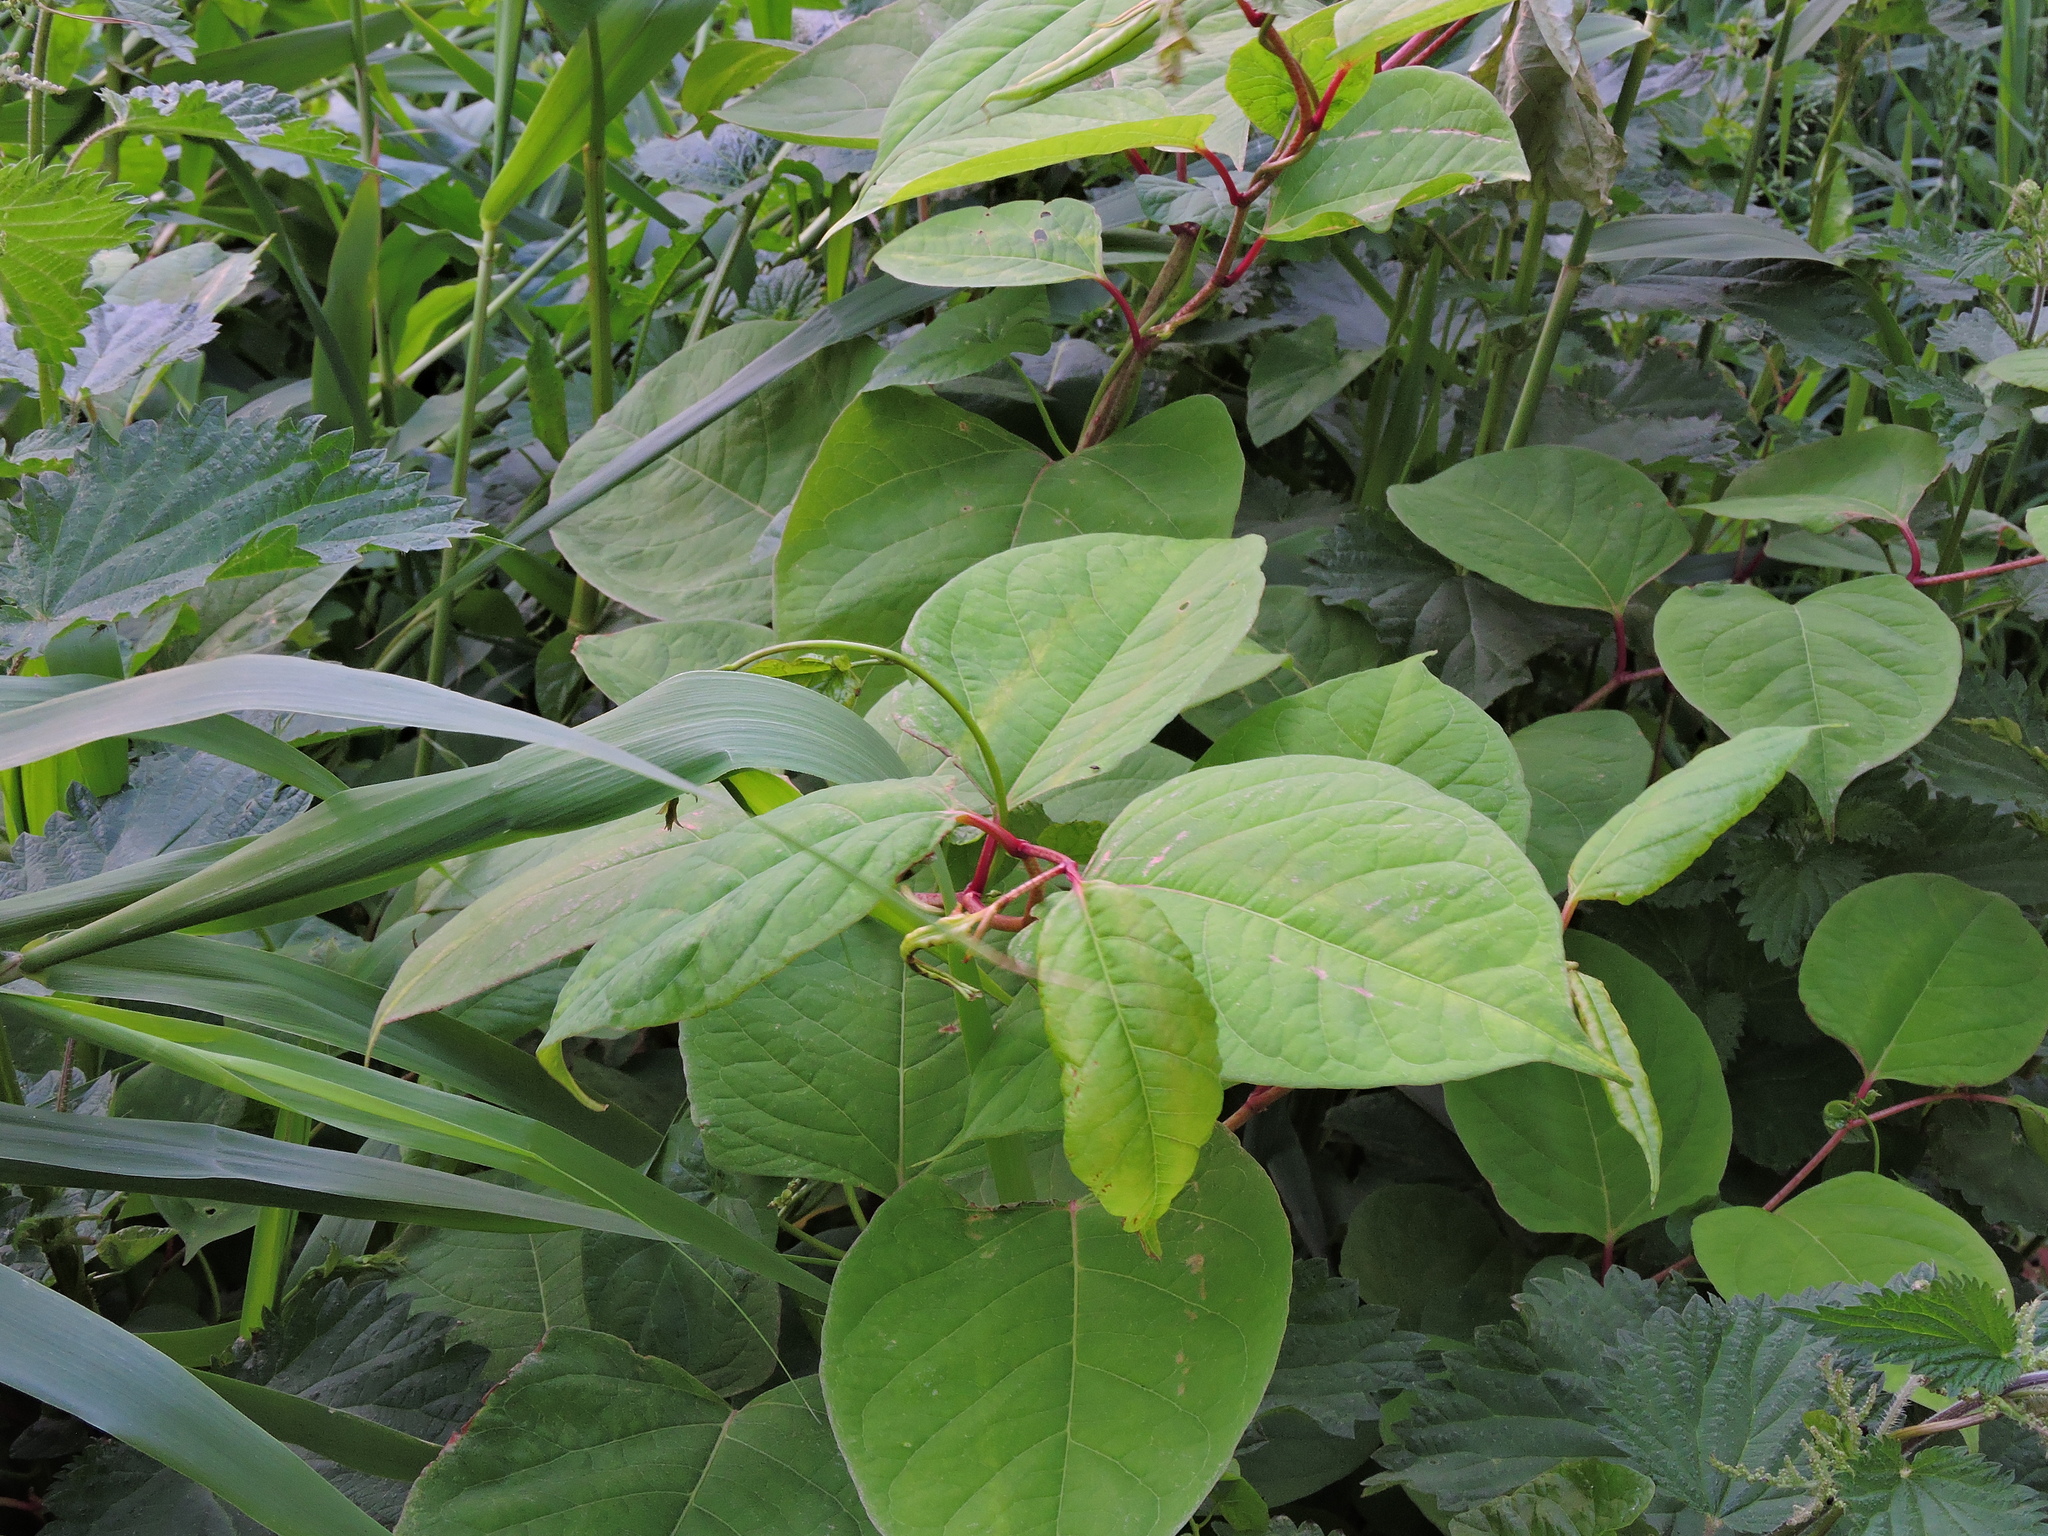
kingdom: Plantae
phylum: Tracheophyta
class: Magnoliopsida
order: Caryophyllales
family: Polygonaceae
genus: Reynoutria
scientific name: Reynoutria japonica
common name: Japanese knotweed
